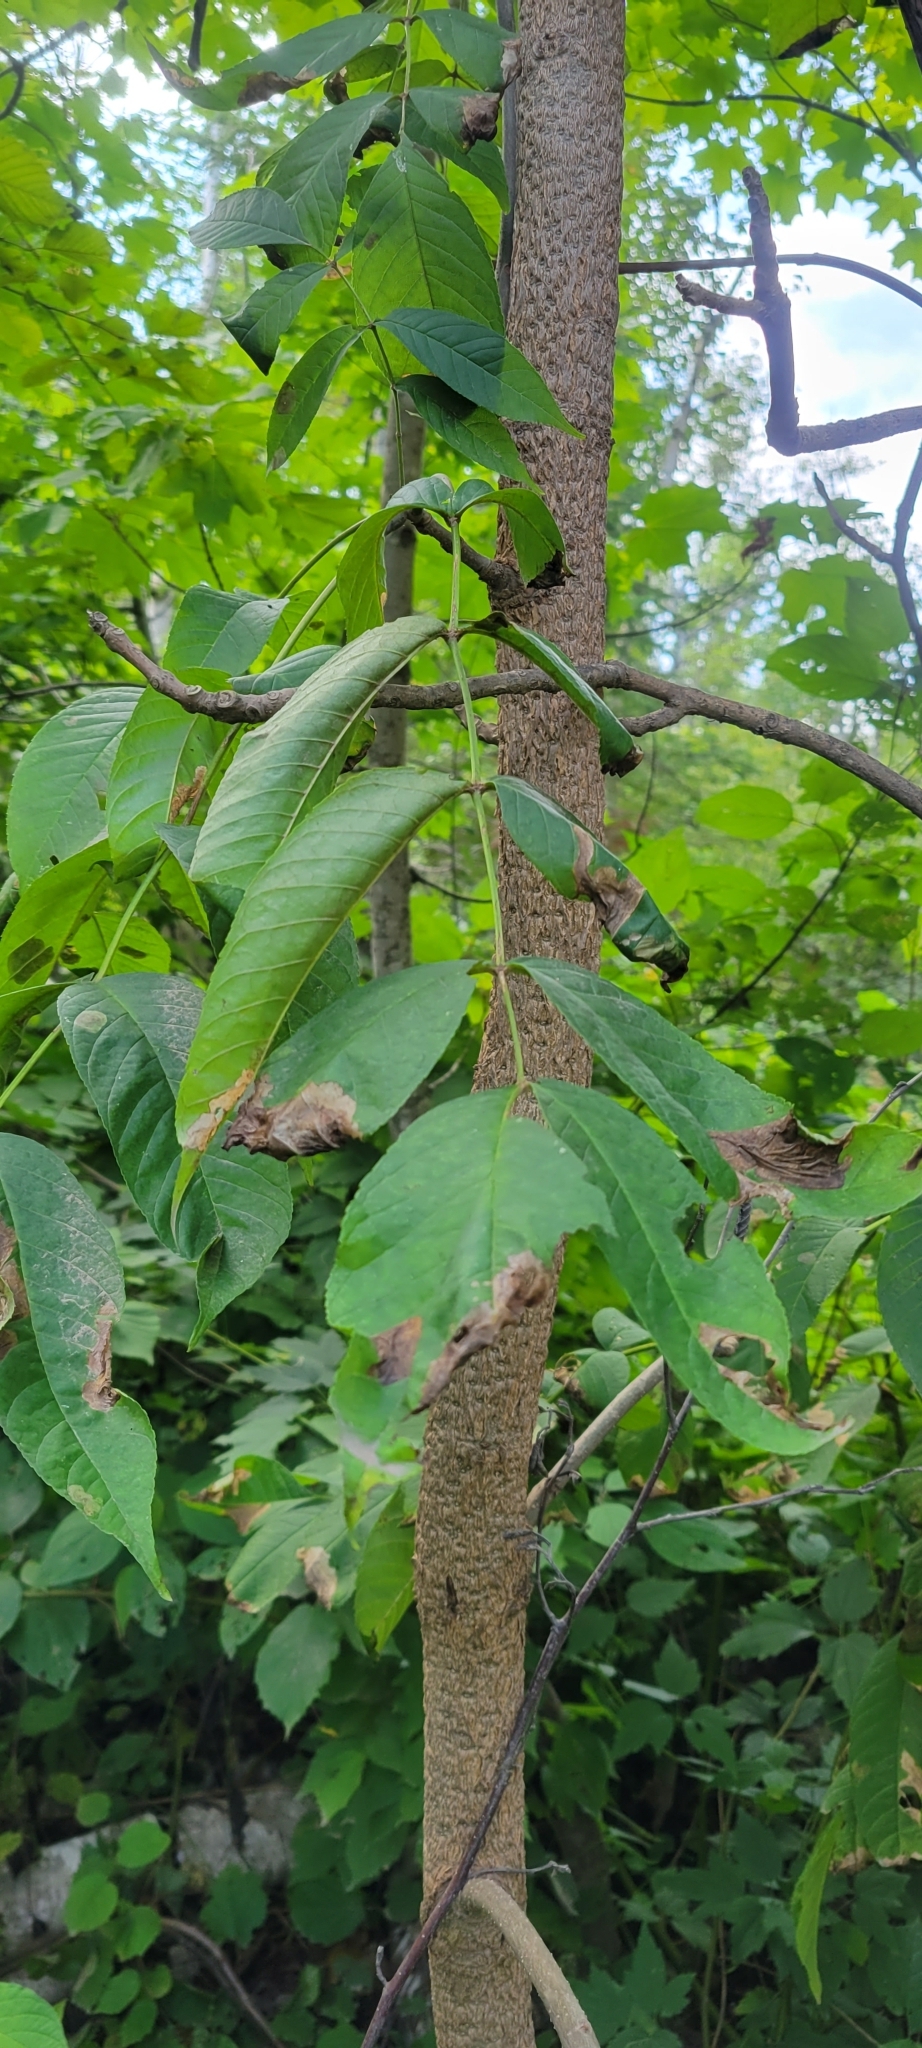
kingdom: Plantae
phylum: Tracheophyta
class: Magnoliopsida
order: Lamiales
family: Oleaceae
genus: Fraxinus
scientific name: Fraxinus nigra
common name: Black ash
